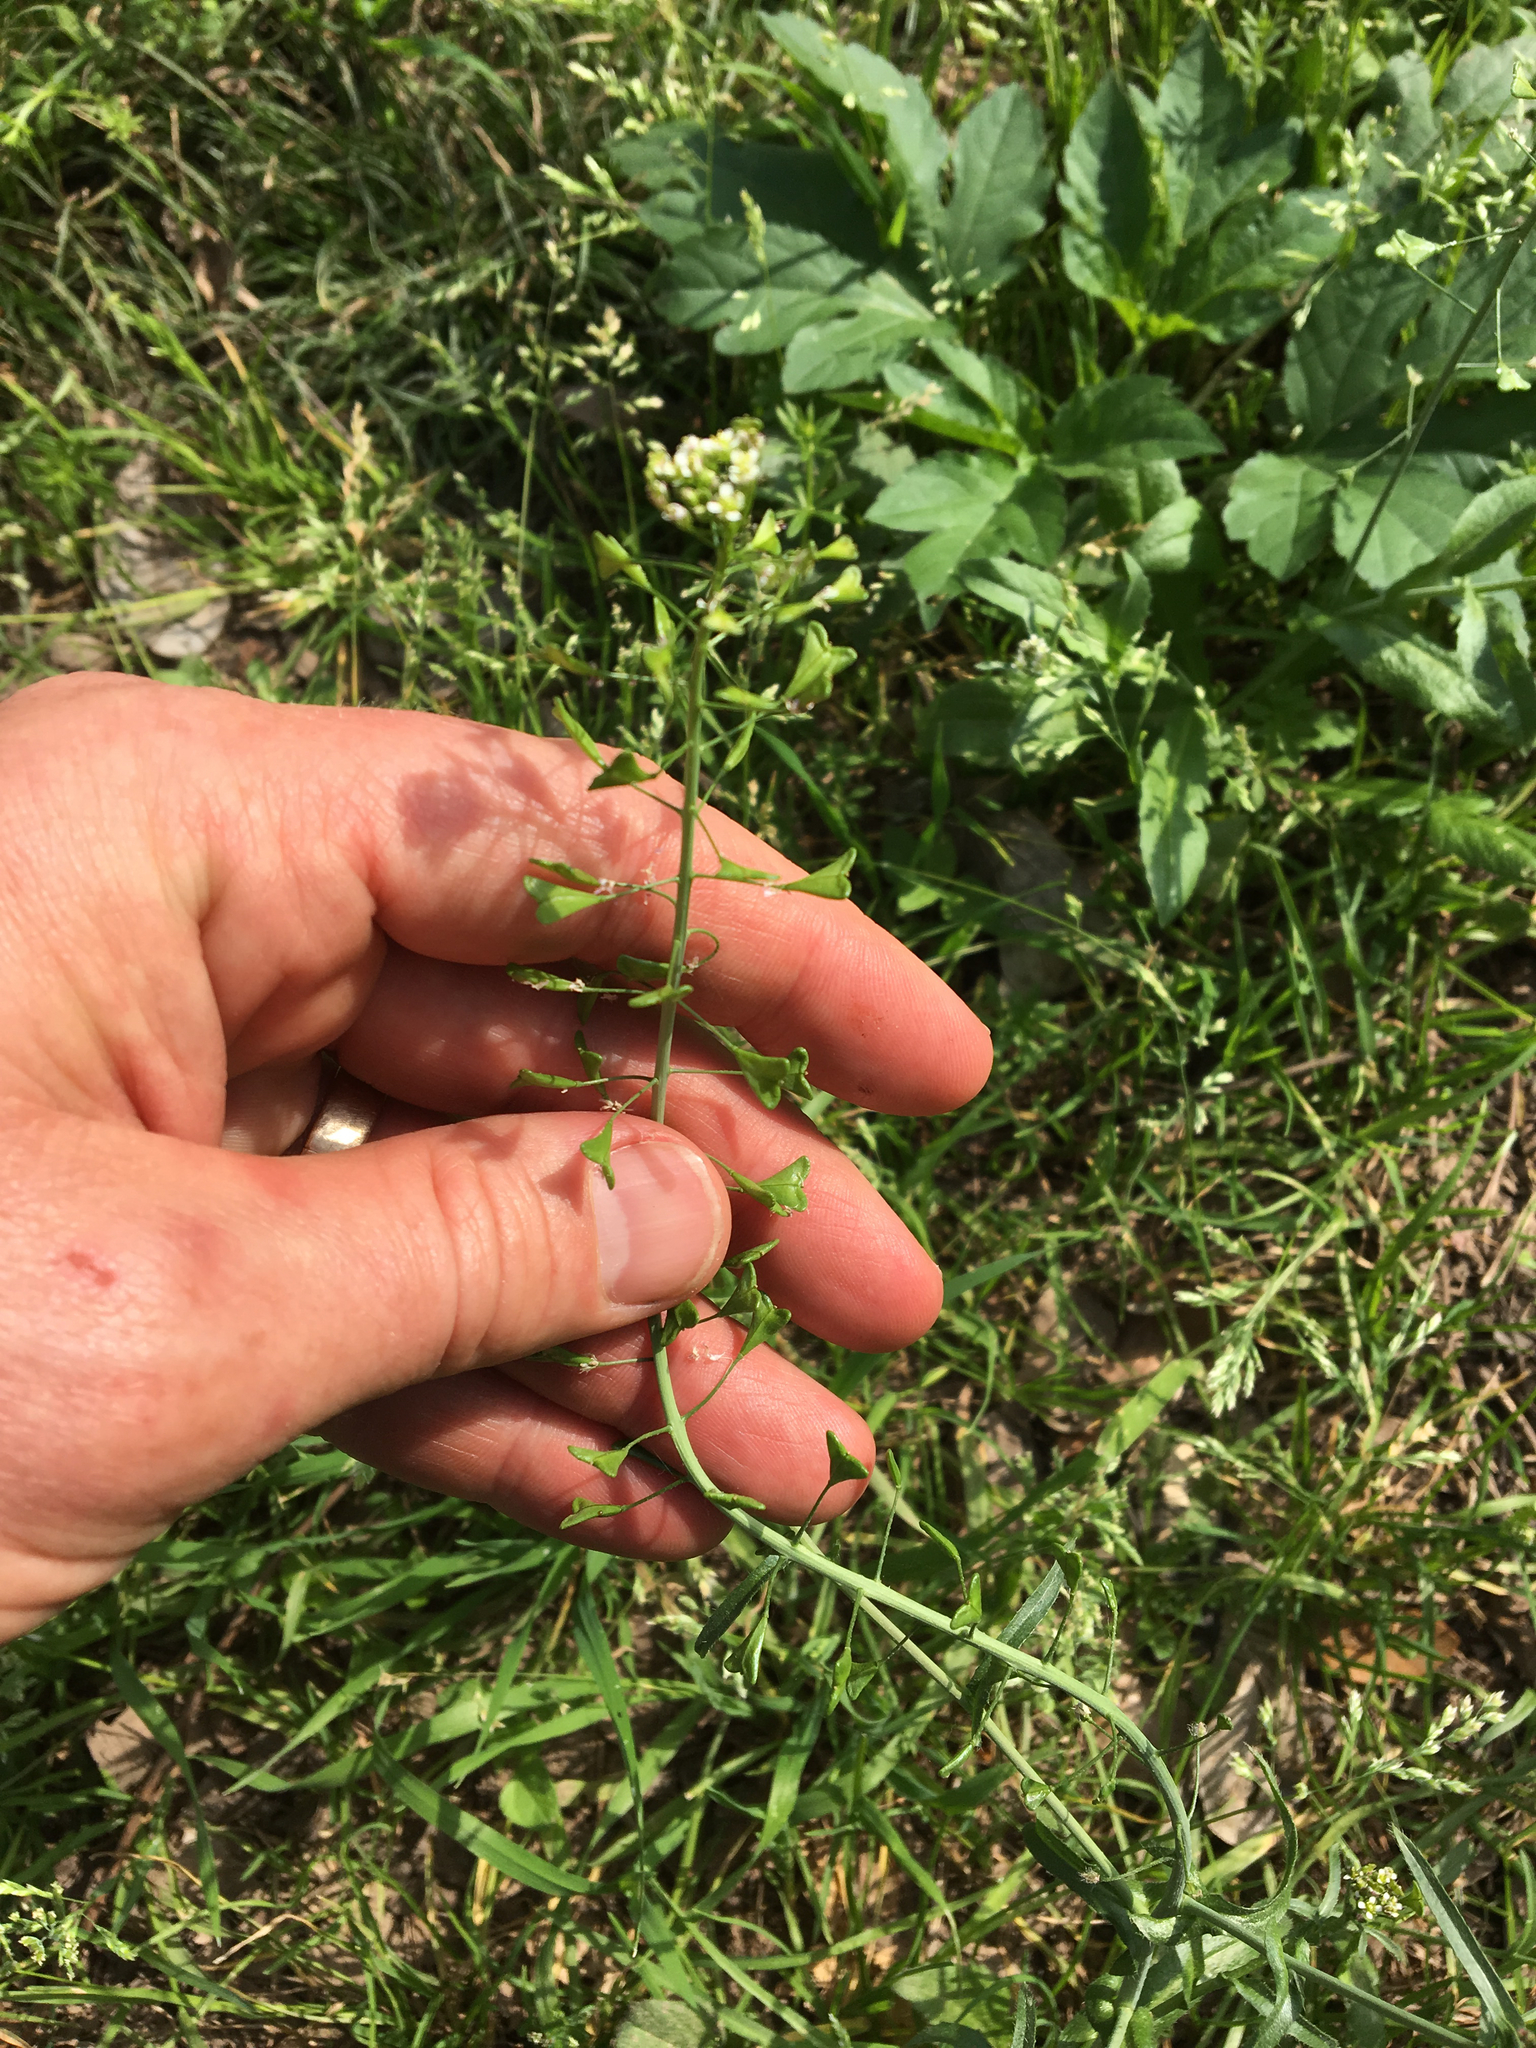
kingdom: Plantae
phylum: Tracheophyta
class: Magnoliopsida
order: Brassicales
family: Brassicaceae
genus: Capsella
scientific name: Capsella bursa-pastoris
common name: Shepherd's purse
